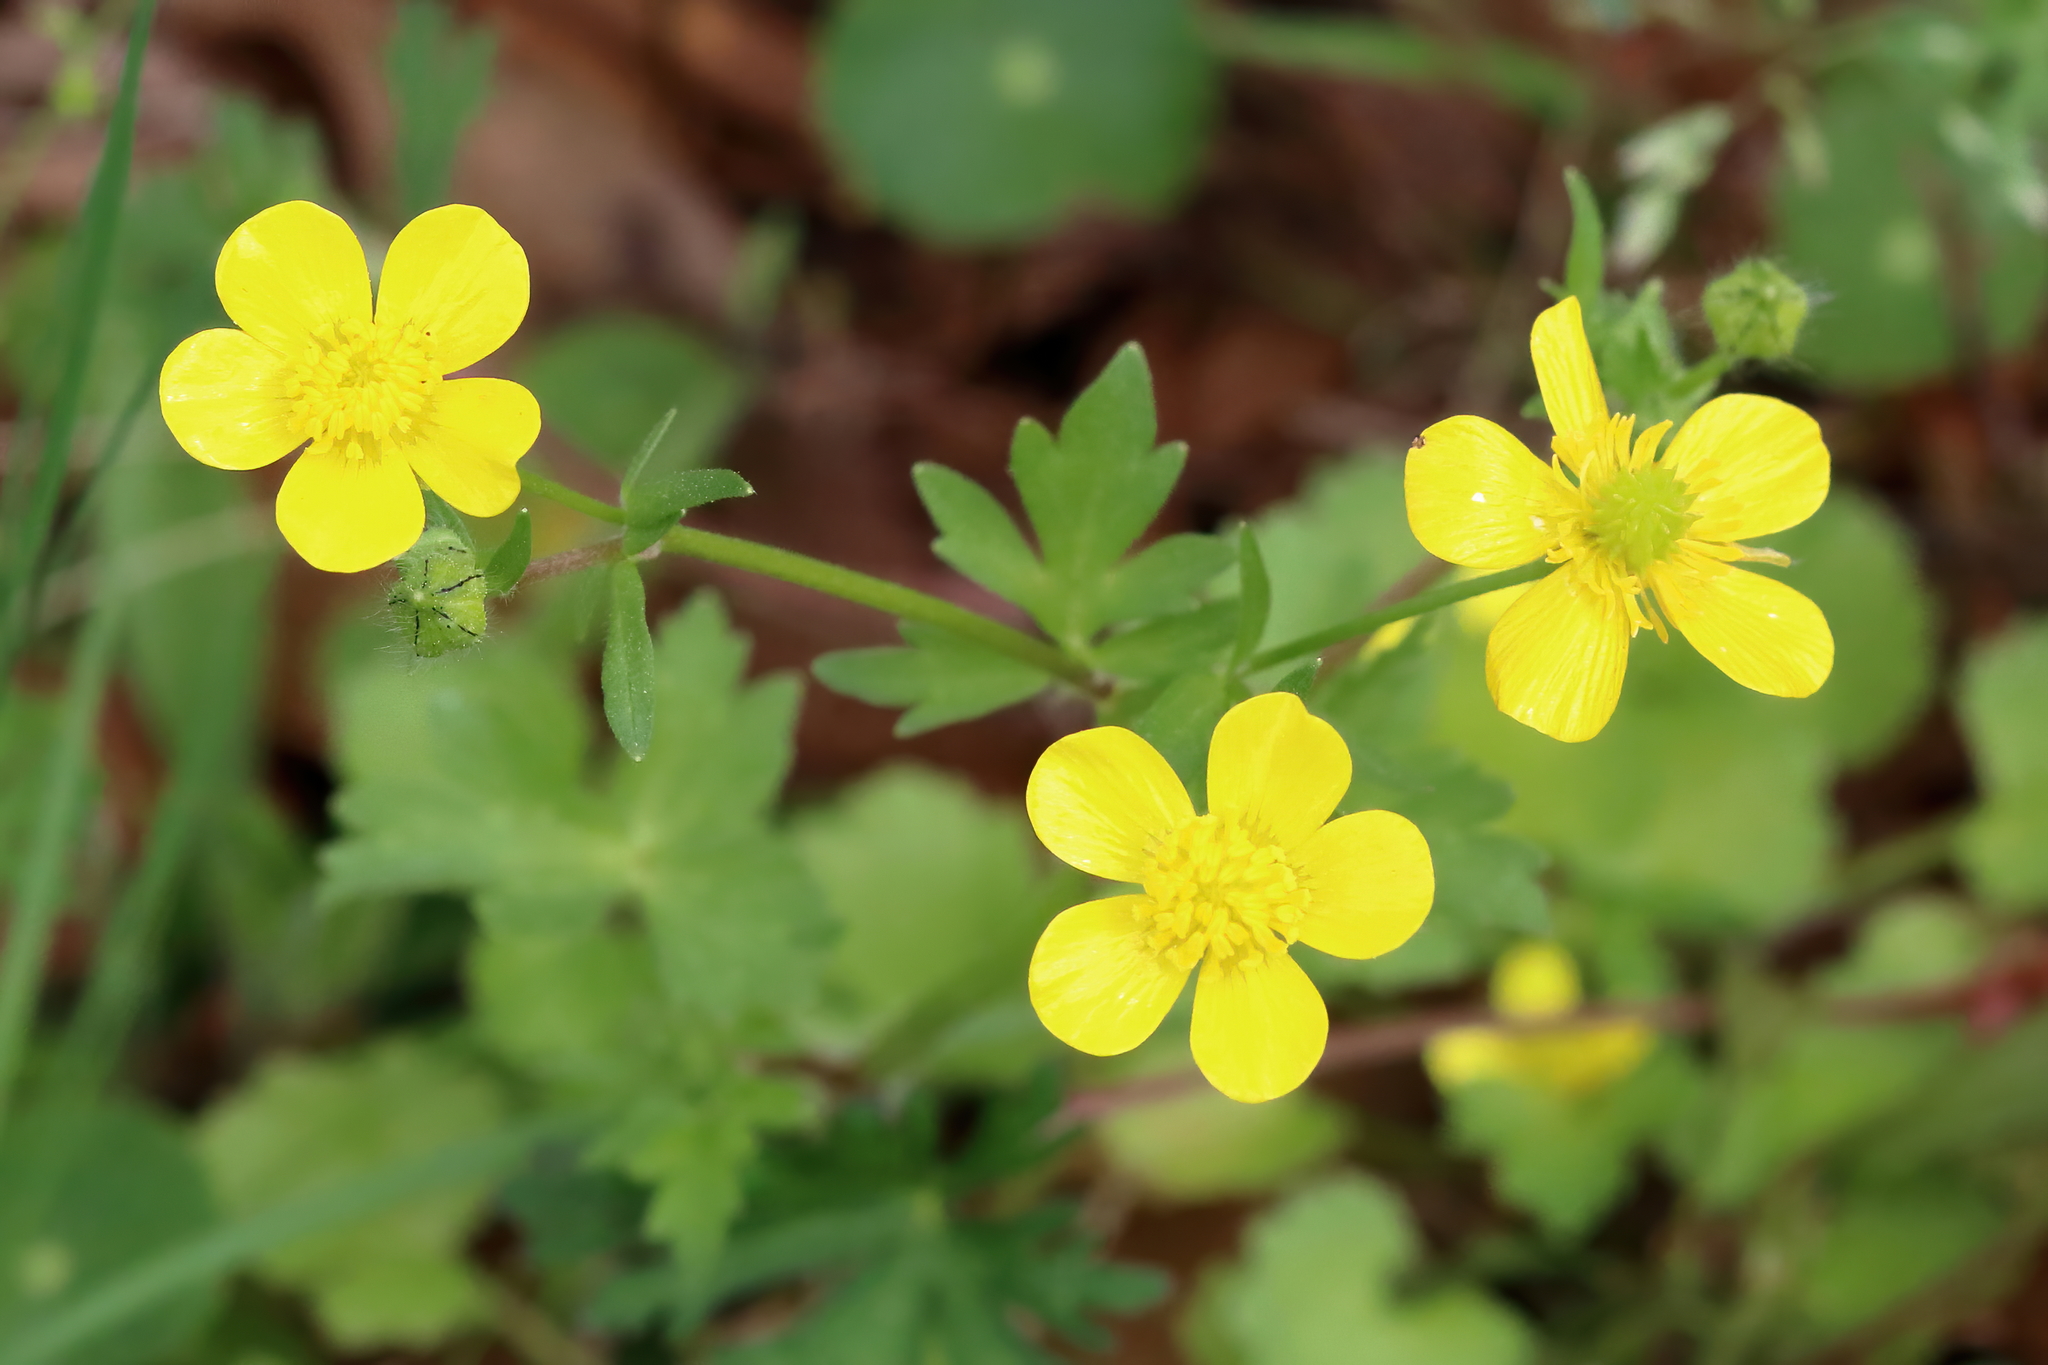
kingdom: Plantae
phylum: Tracheophyta
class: Magnoliopsida
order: Ranunculales
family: Ranunculaceae
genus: Ranunculus
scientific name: Ranunculus sardous
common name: Hairy buttercup
